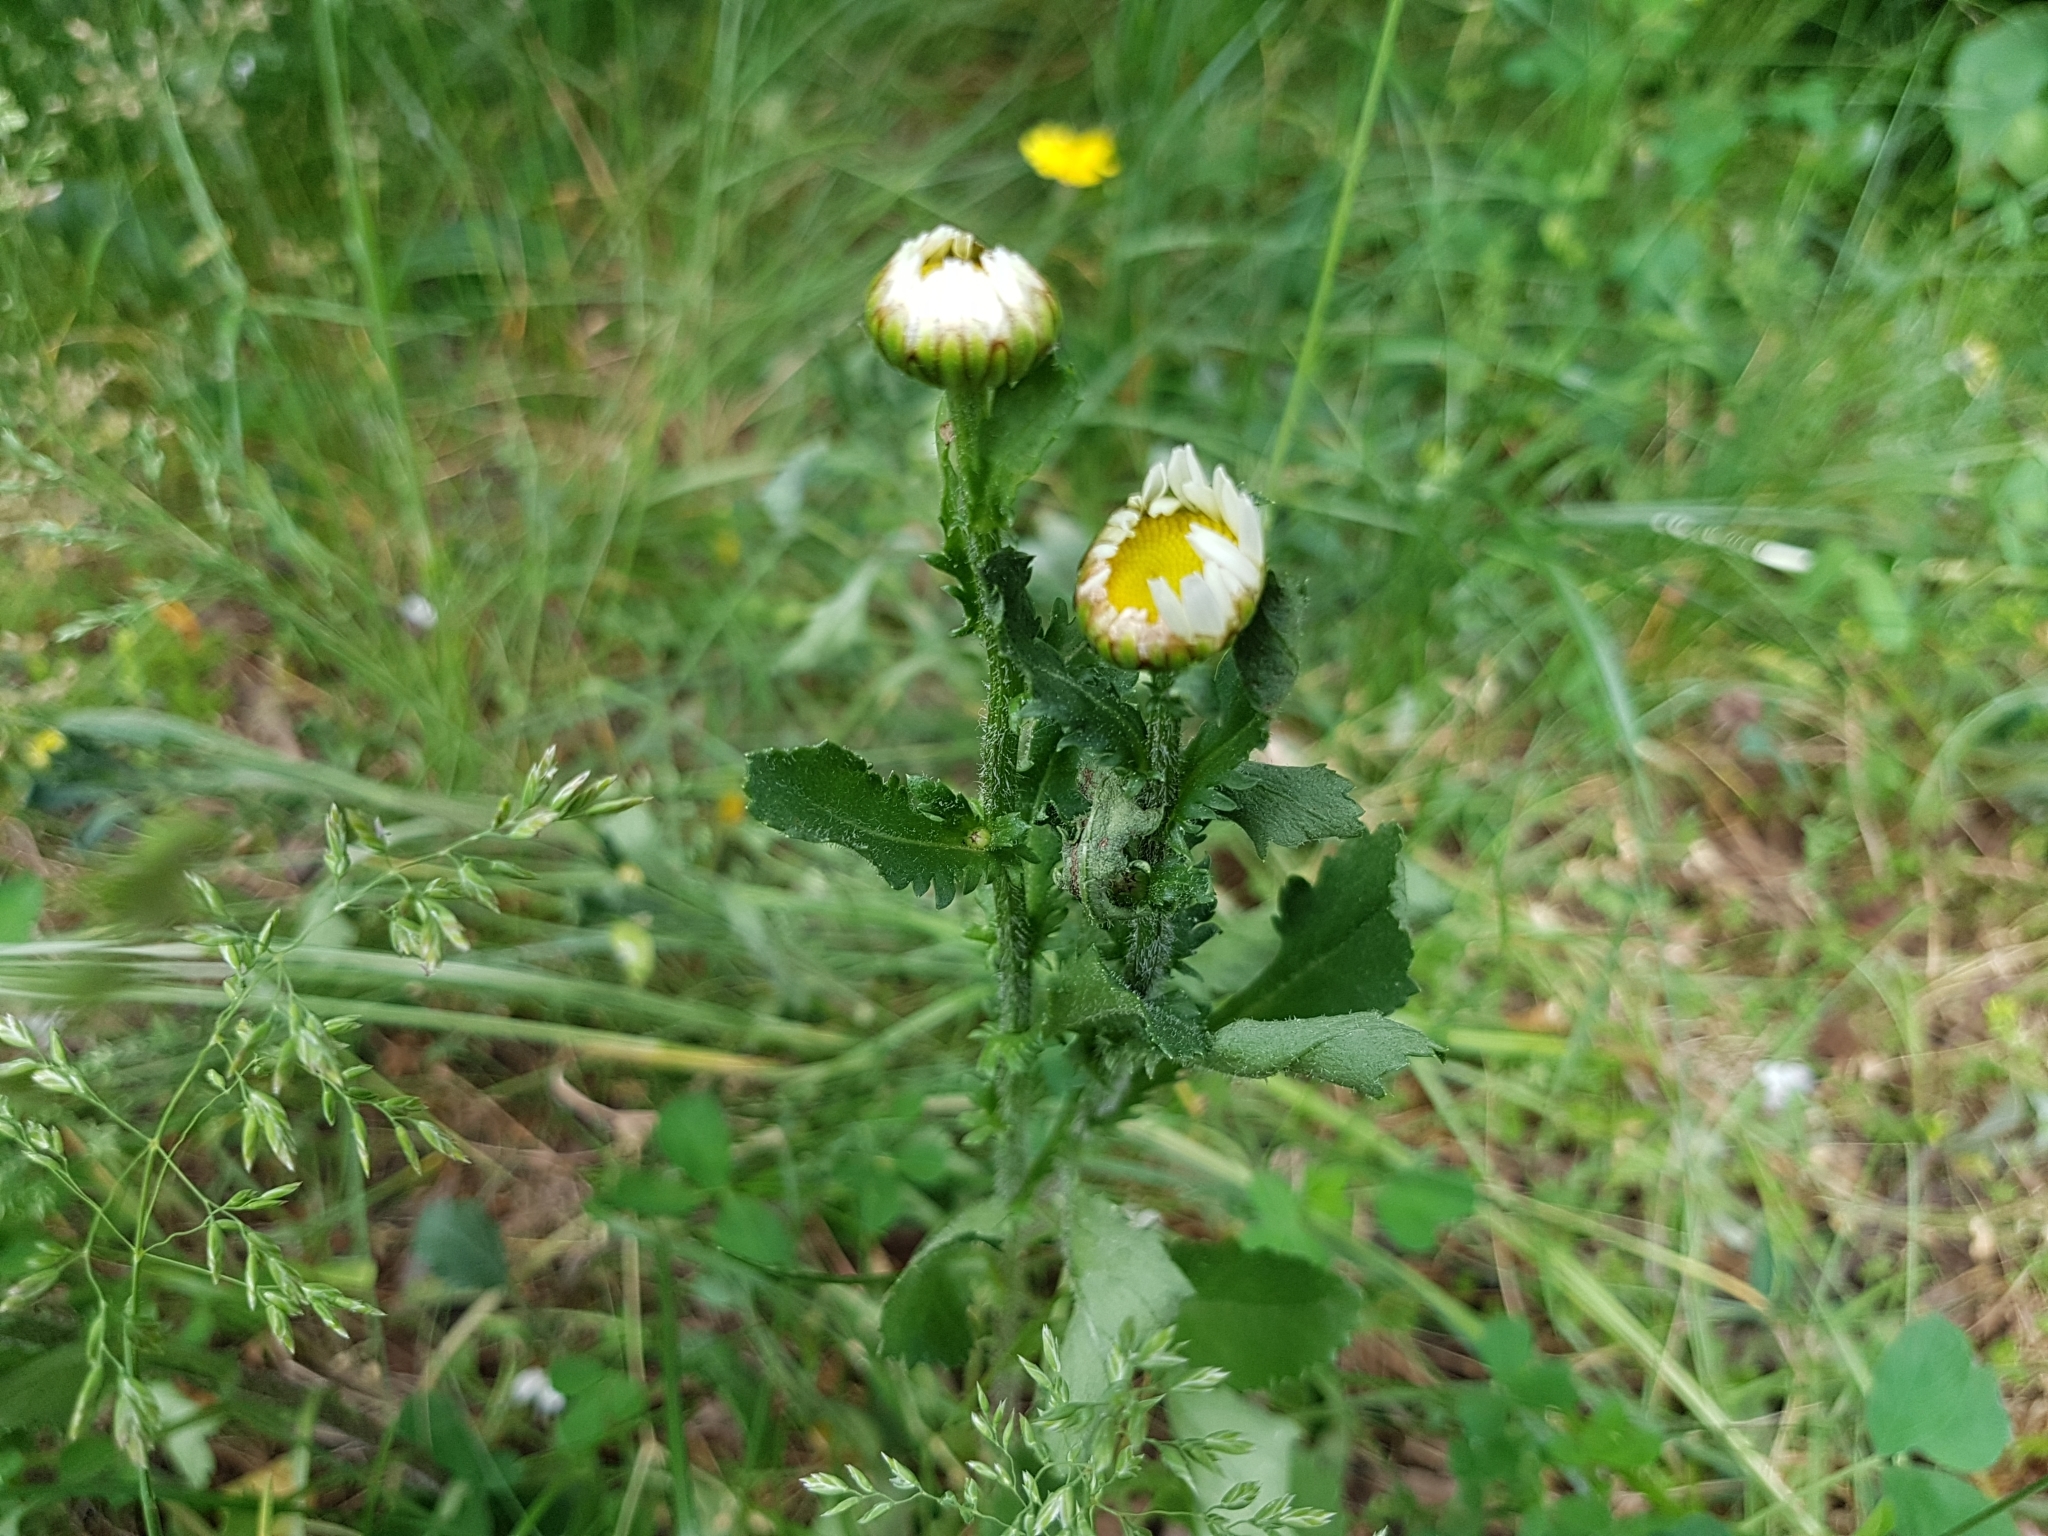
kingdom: Plantae
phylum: Tracheophyta
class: Magnoliopsida
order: Asterales
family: Asteraceae
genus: Leucanthemum
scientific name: Leucanthemum vulgare
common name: Oxeye daisy
